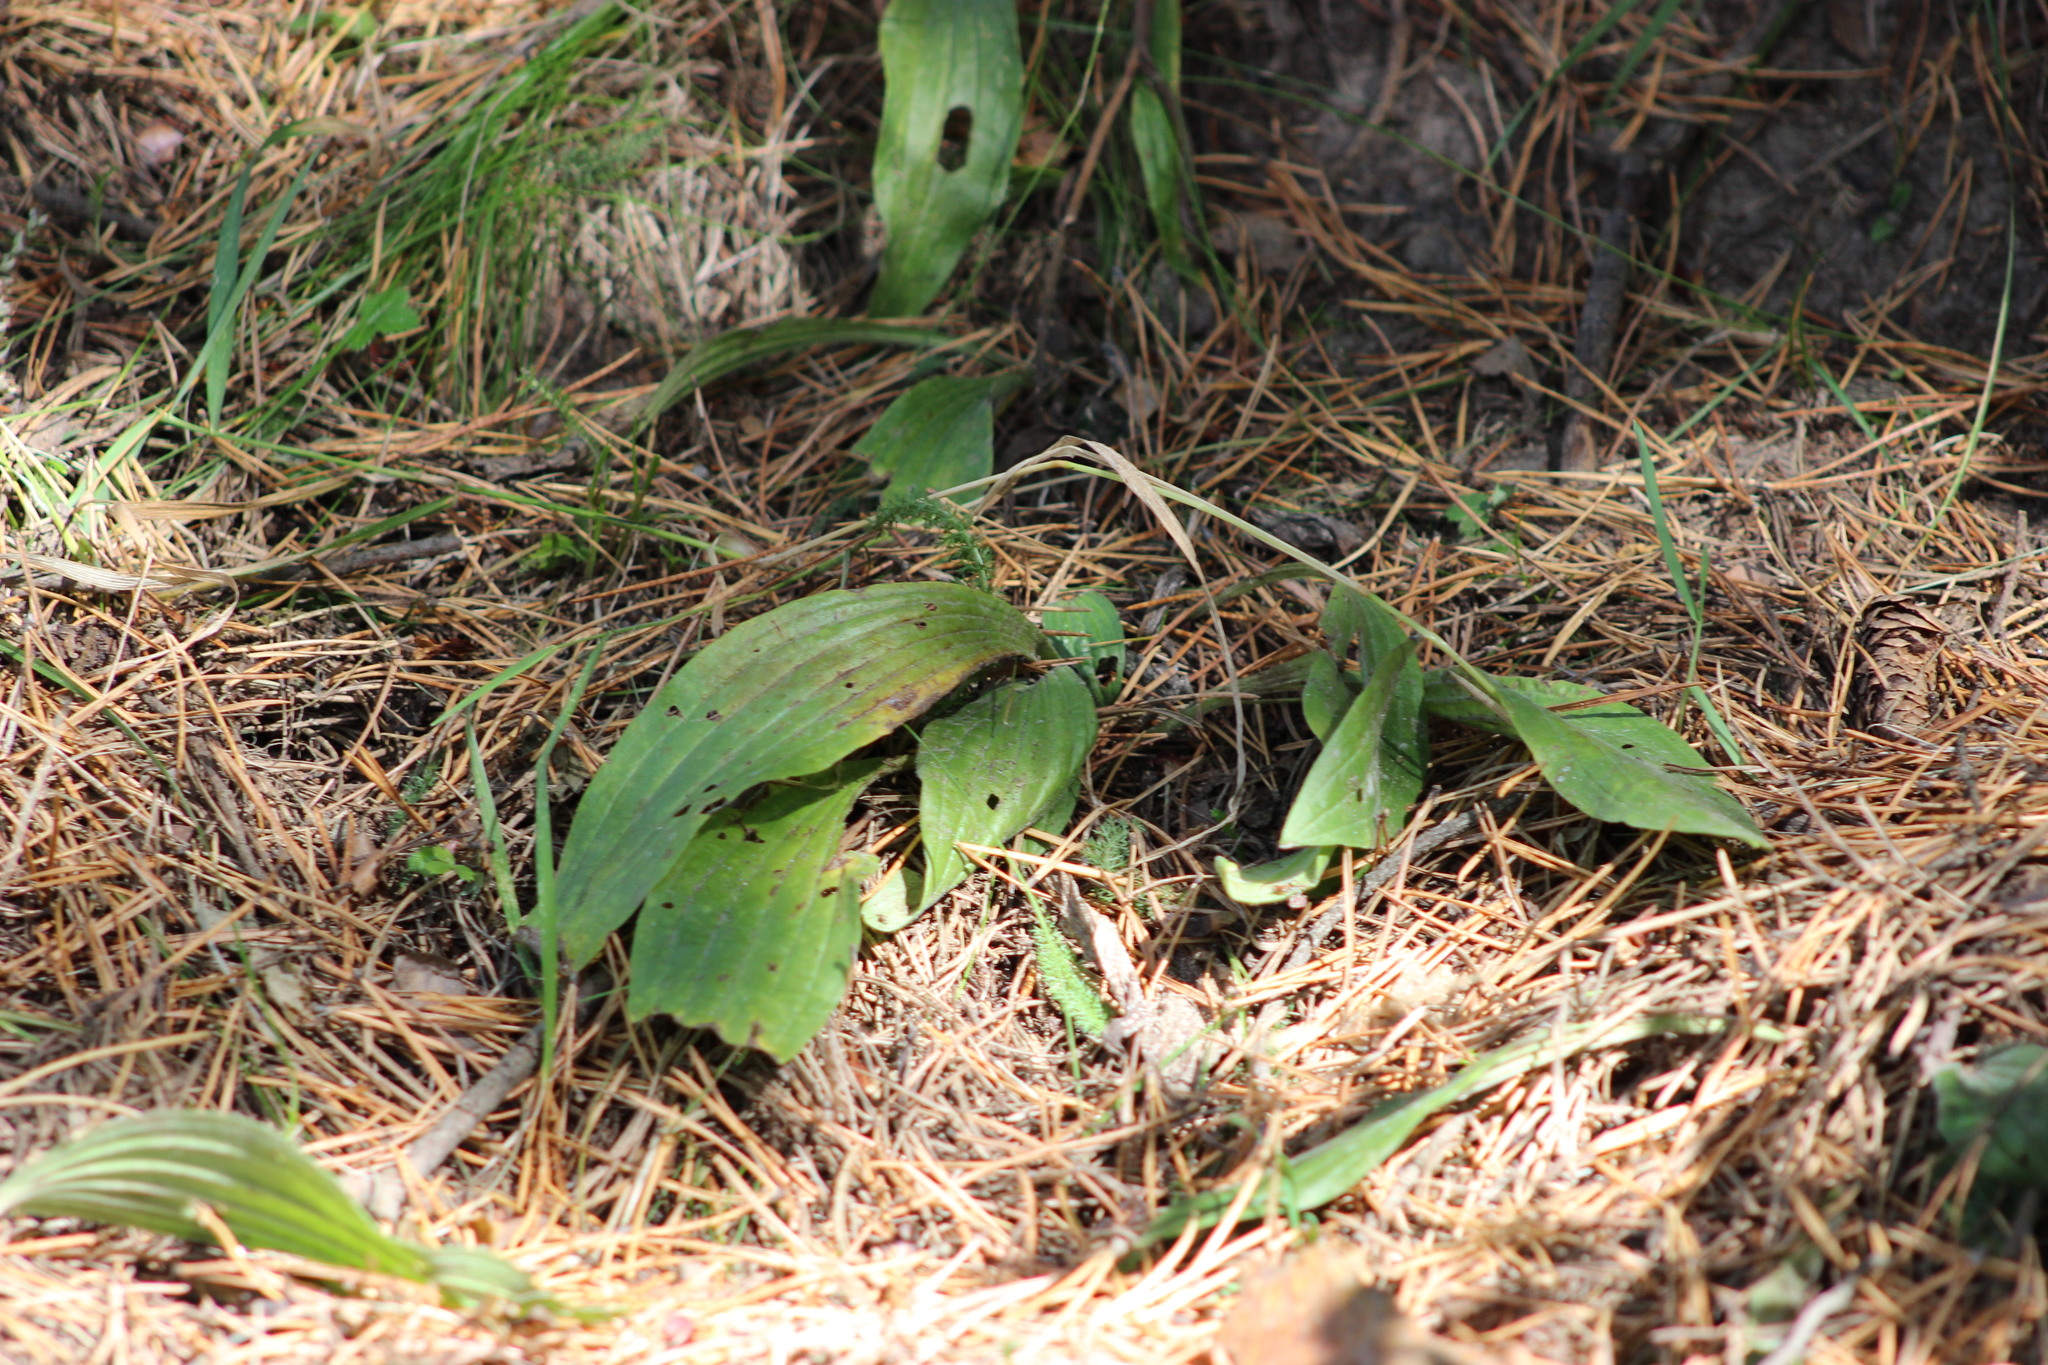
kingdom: Plantae
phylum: Tracheophyta
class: Magnoliopsida
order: Lamiales
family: Plantaginaceae
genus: Plantago
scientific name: Plantago media
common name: Hoary plantain
